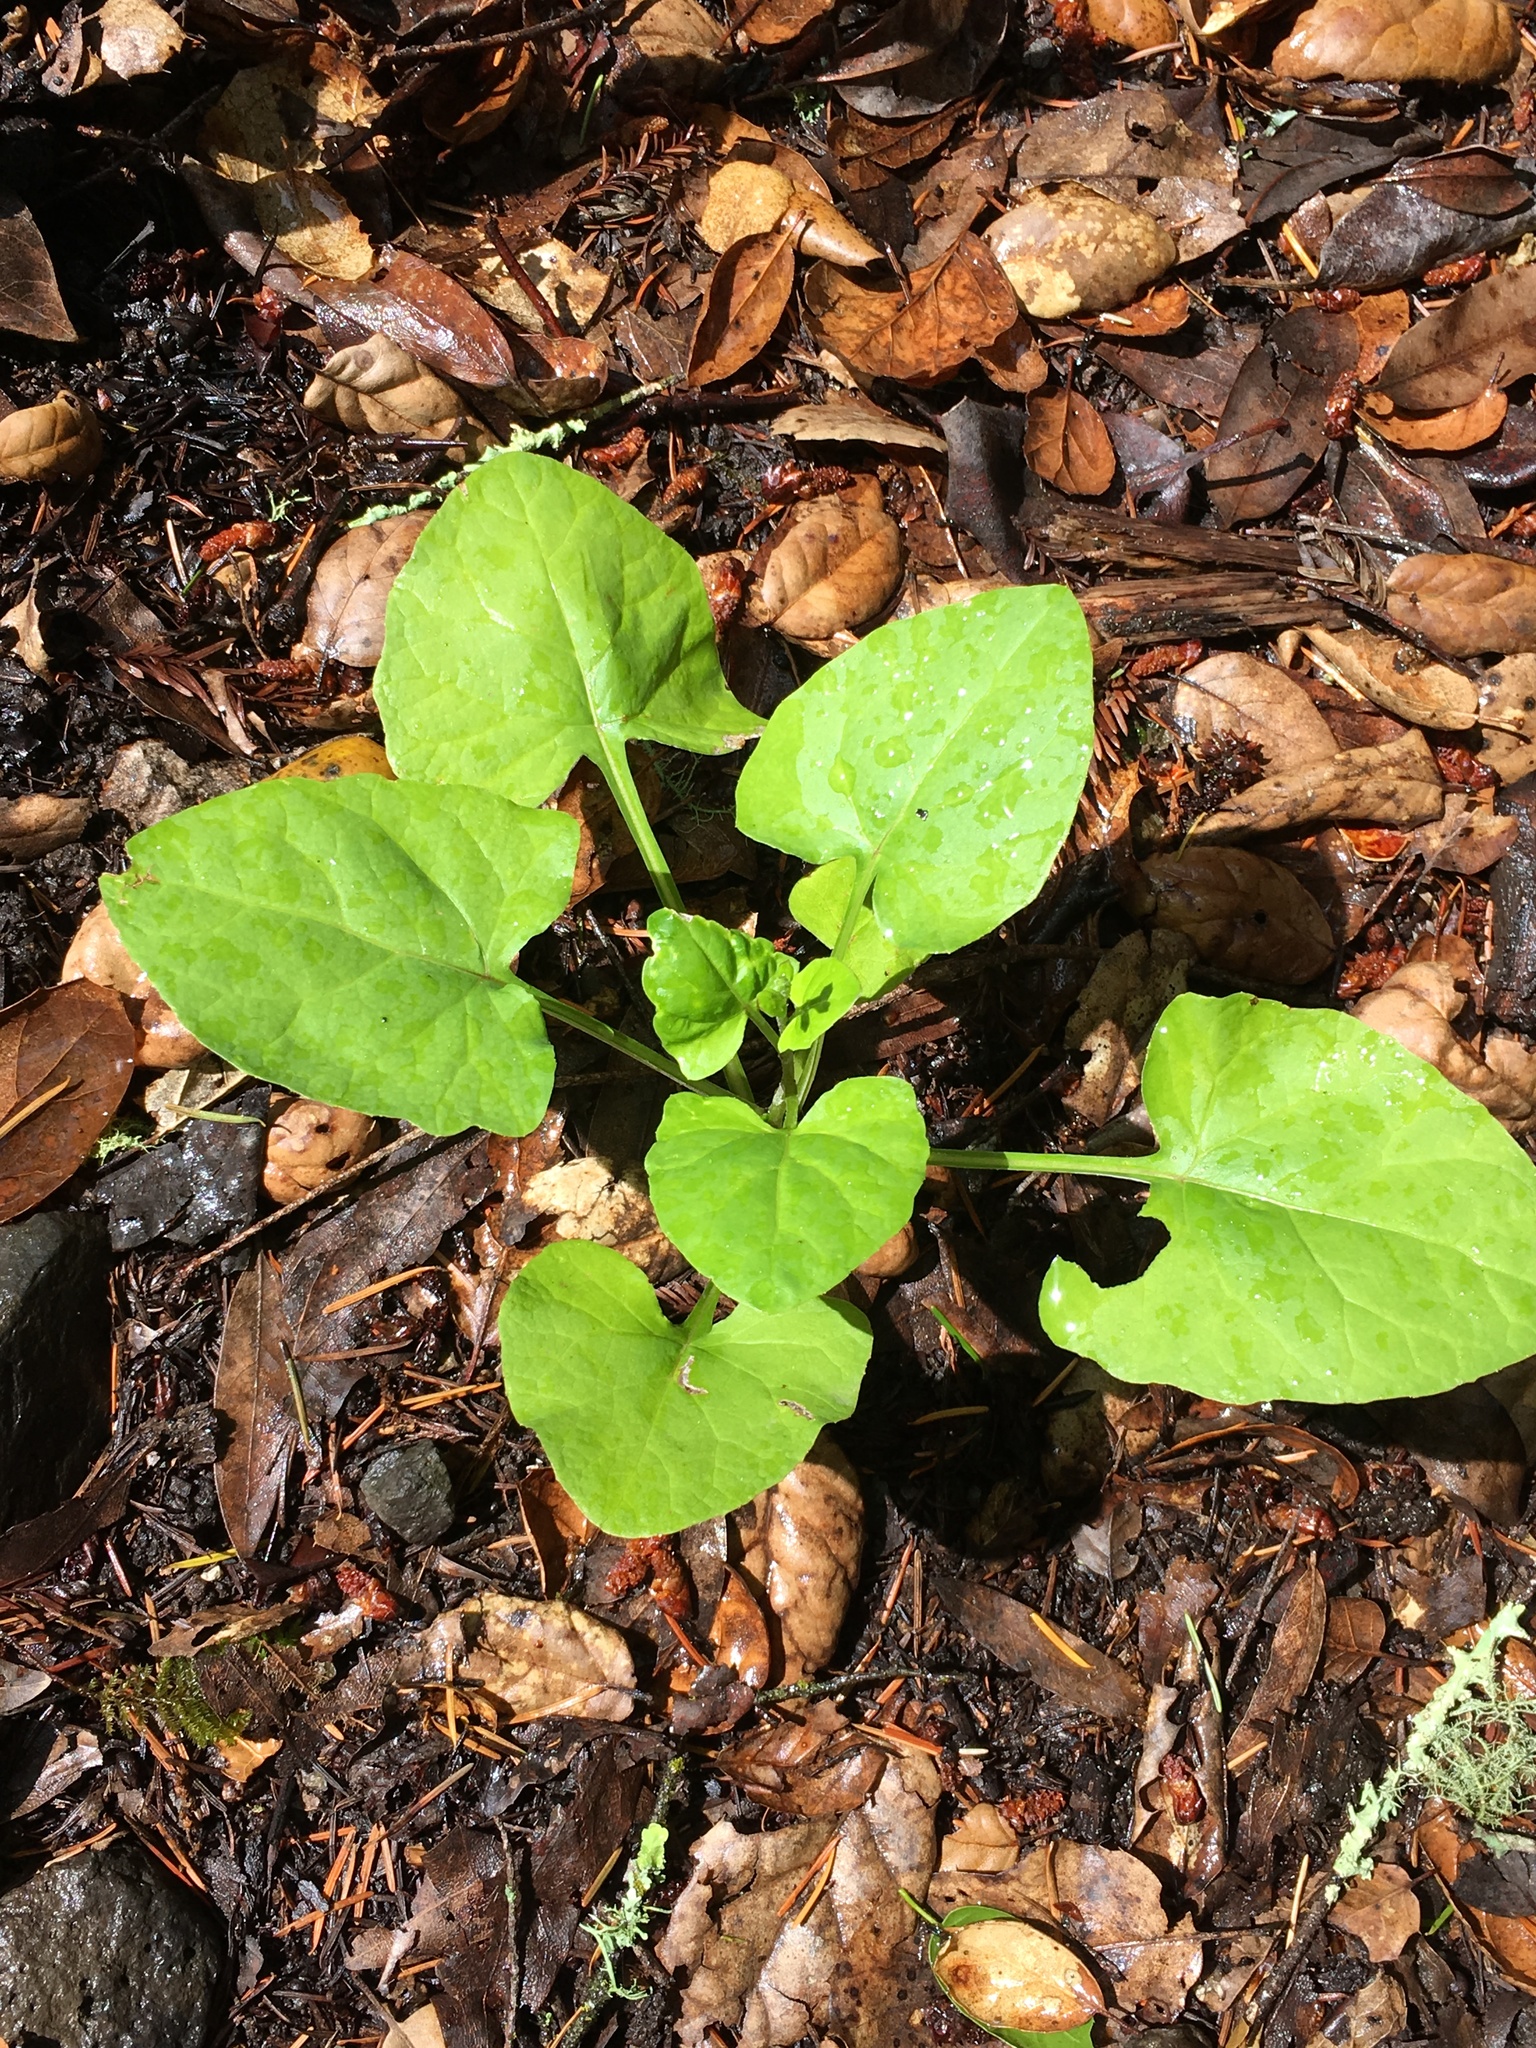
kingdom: Plantae
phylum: Tracheophyta
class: Magnoliopsida
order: Asterales
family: Asteraceae
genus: Adenocaulon
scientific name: Adenocaulon bicolor
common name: Trailplant
